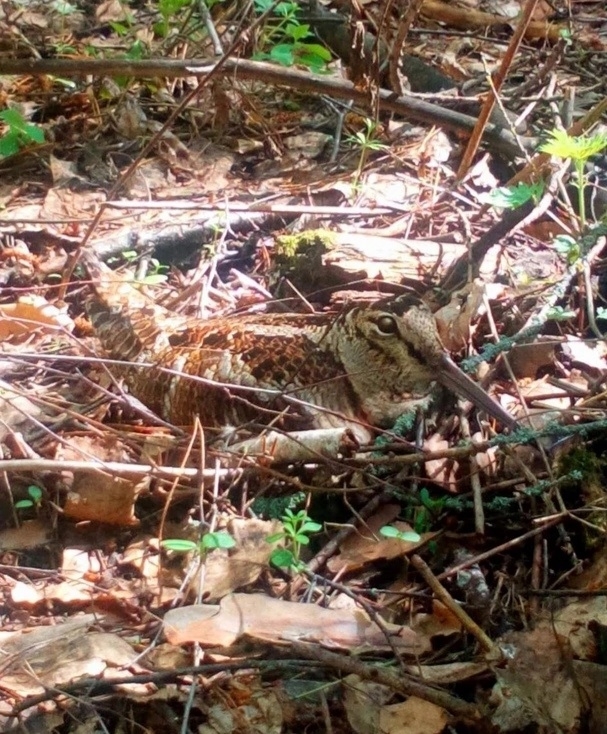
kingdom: Animalia
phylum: Chordata
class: Aves
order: Charadriiformes
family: Scolopacidae
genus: Scolopax
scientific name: Scolopax rusticola
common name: Eurasian woodcock
